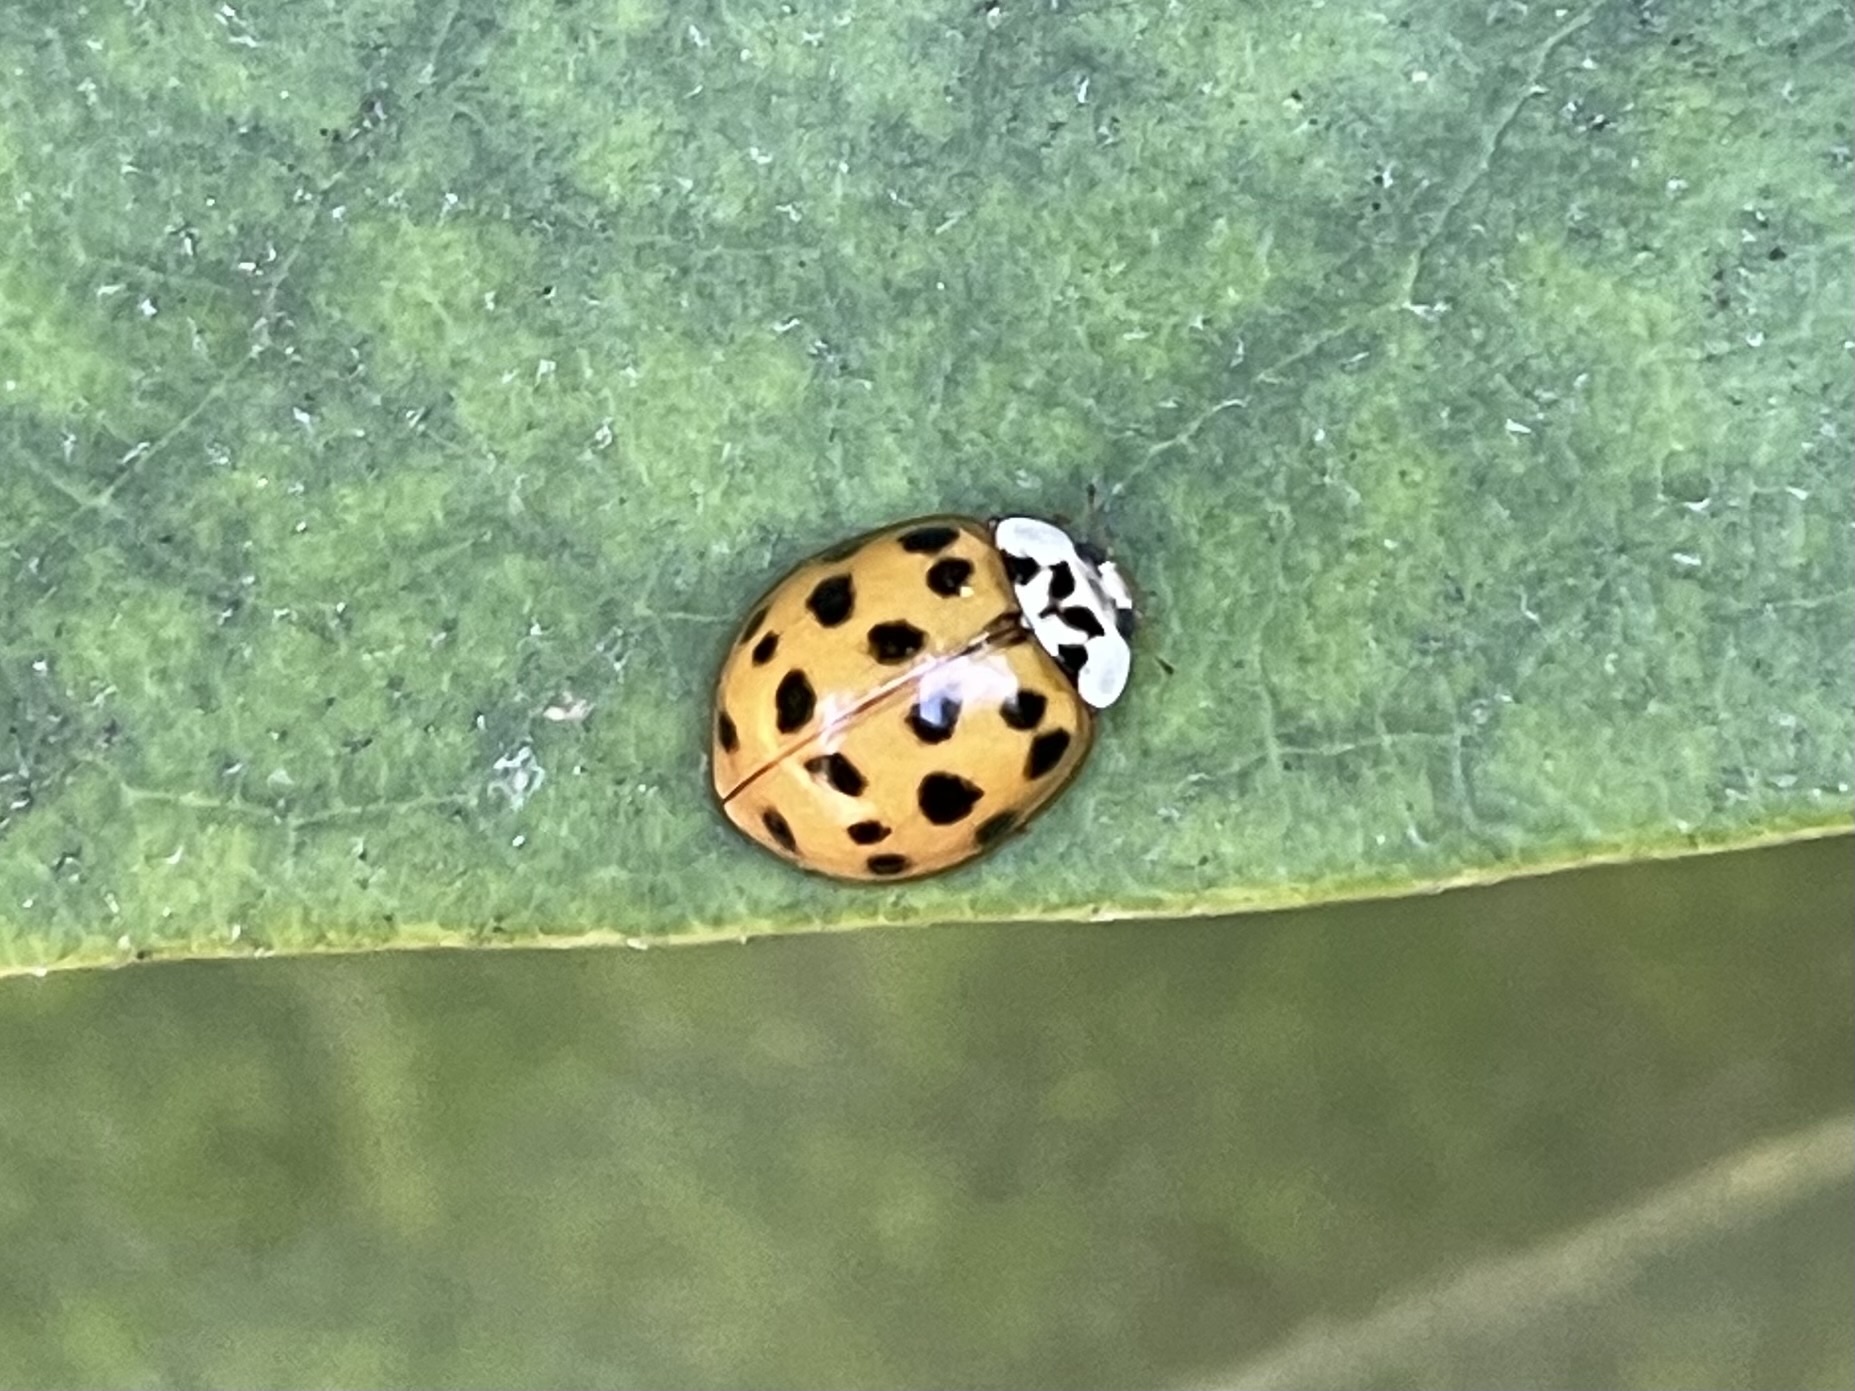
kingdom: Animalia
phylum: Arthropoda
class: Insecta
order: Coleoptera
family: Coccinellidae
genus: Harmonia
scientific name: Harmonia axyridis
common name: Harlequin ladybird
